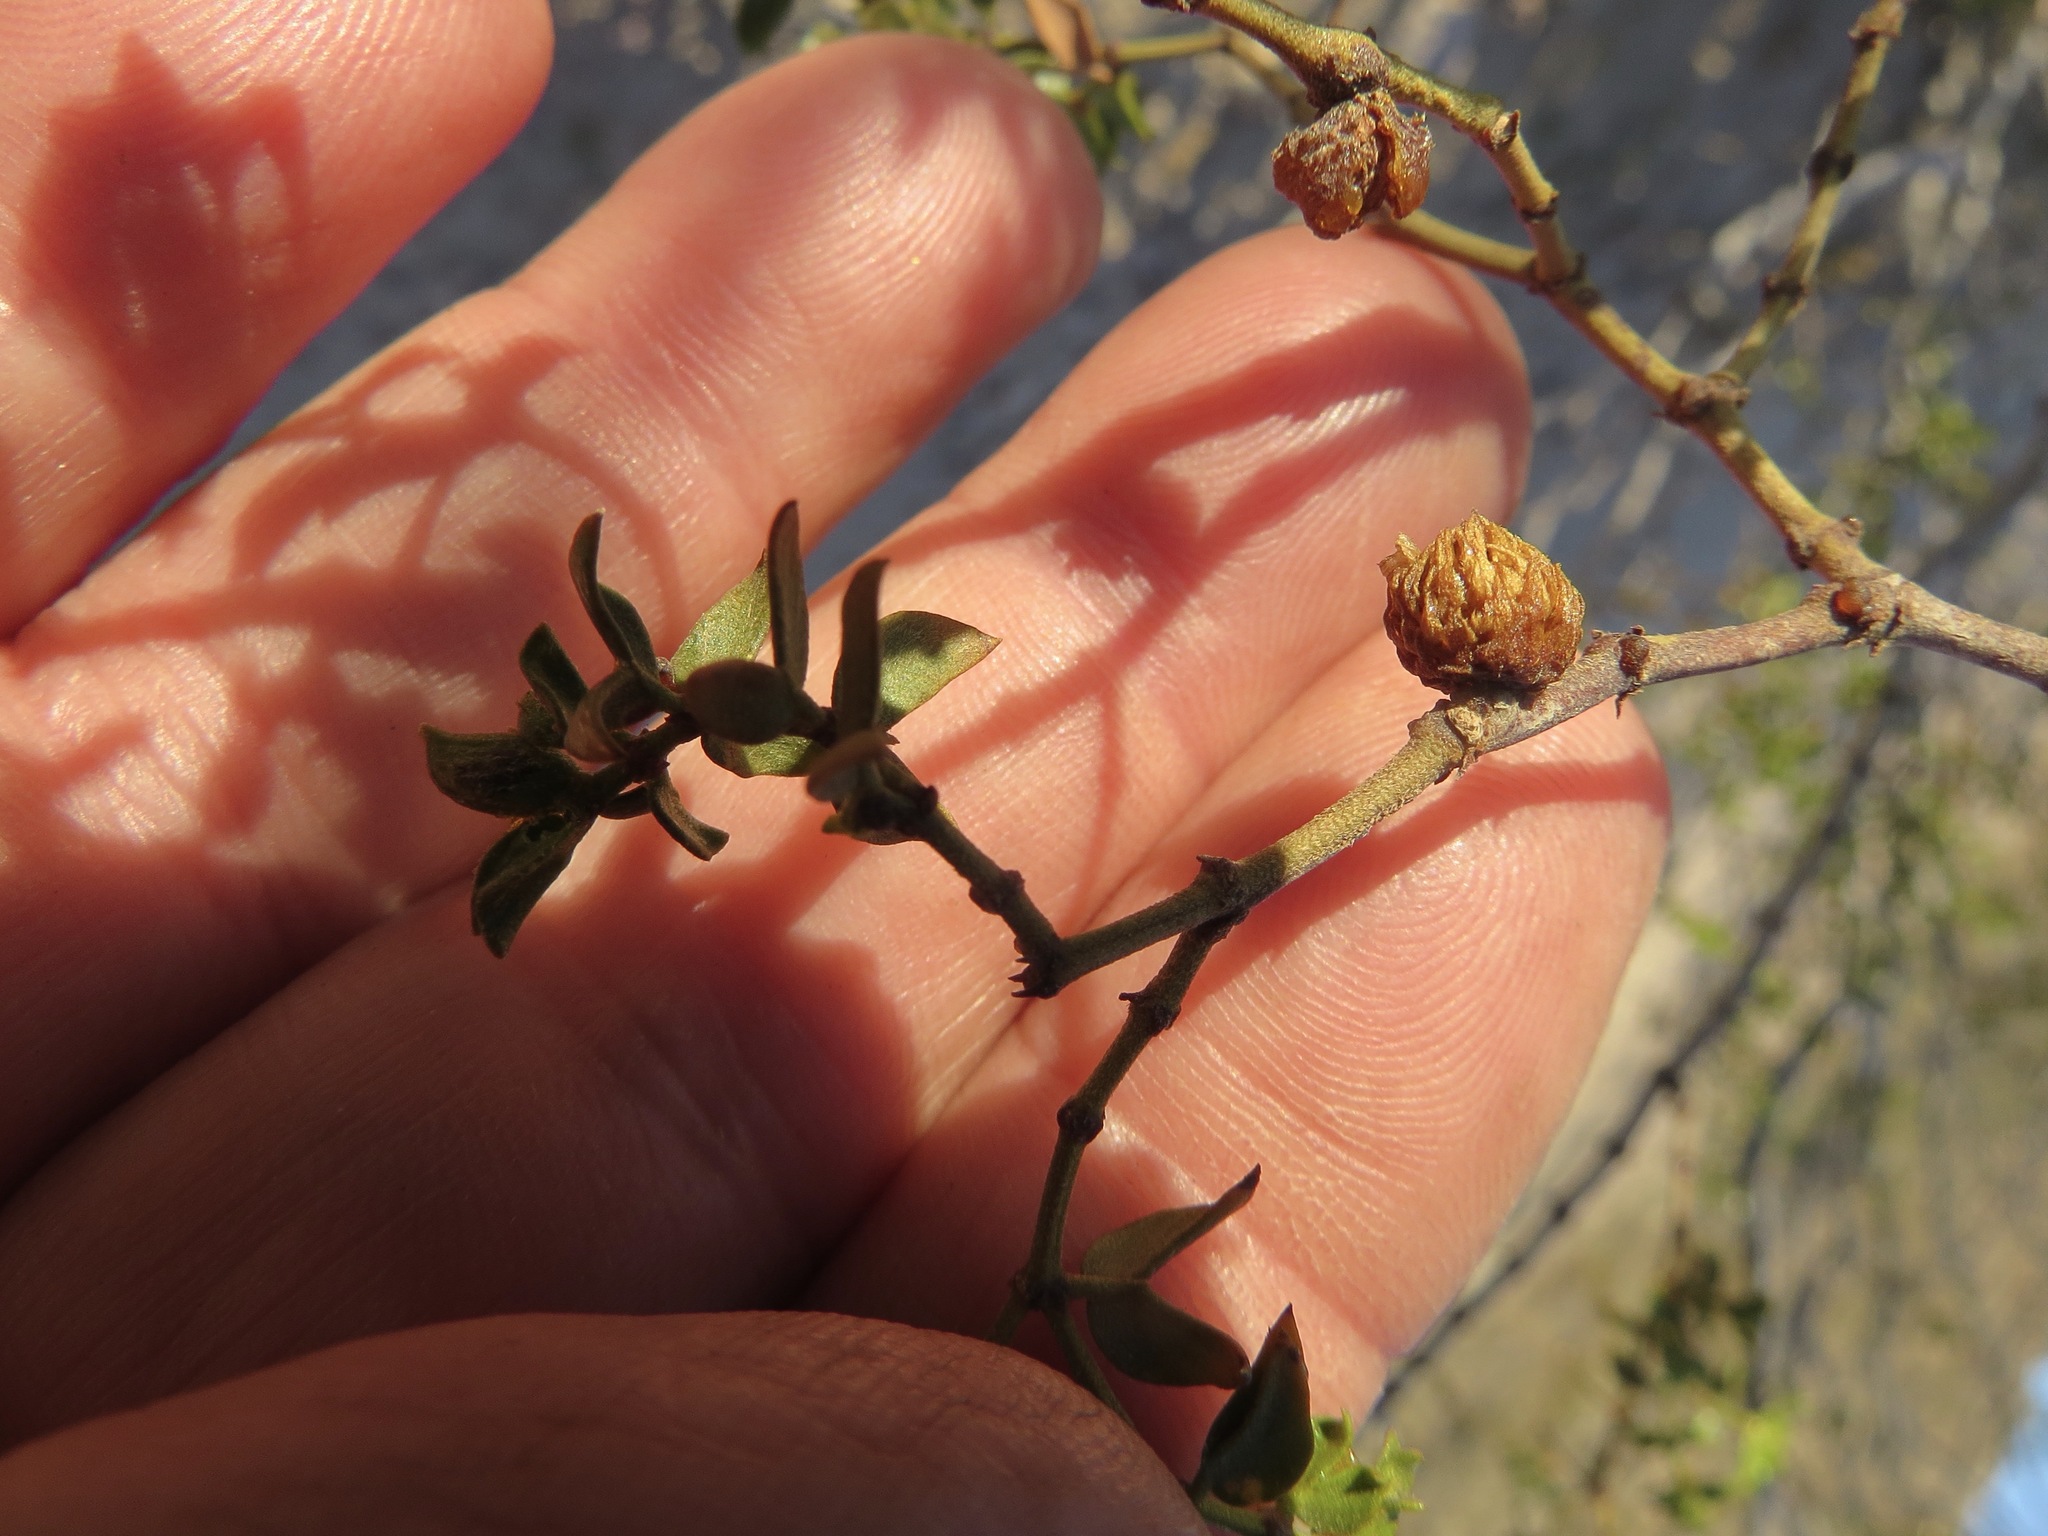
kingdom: Animalia
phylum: Arthropoda
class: Insecta
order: Diptera
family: Cecidomyiidae
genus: Asphondylia
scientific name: Asphondylia foliosa
